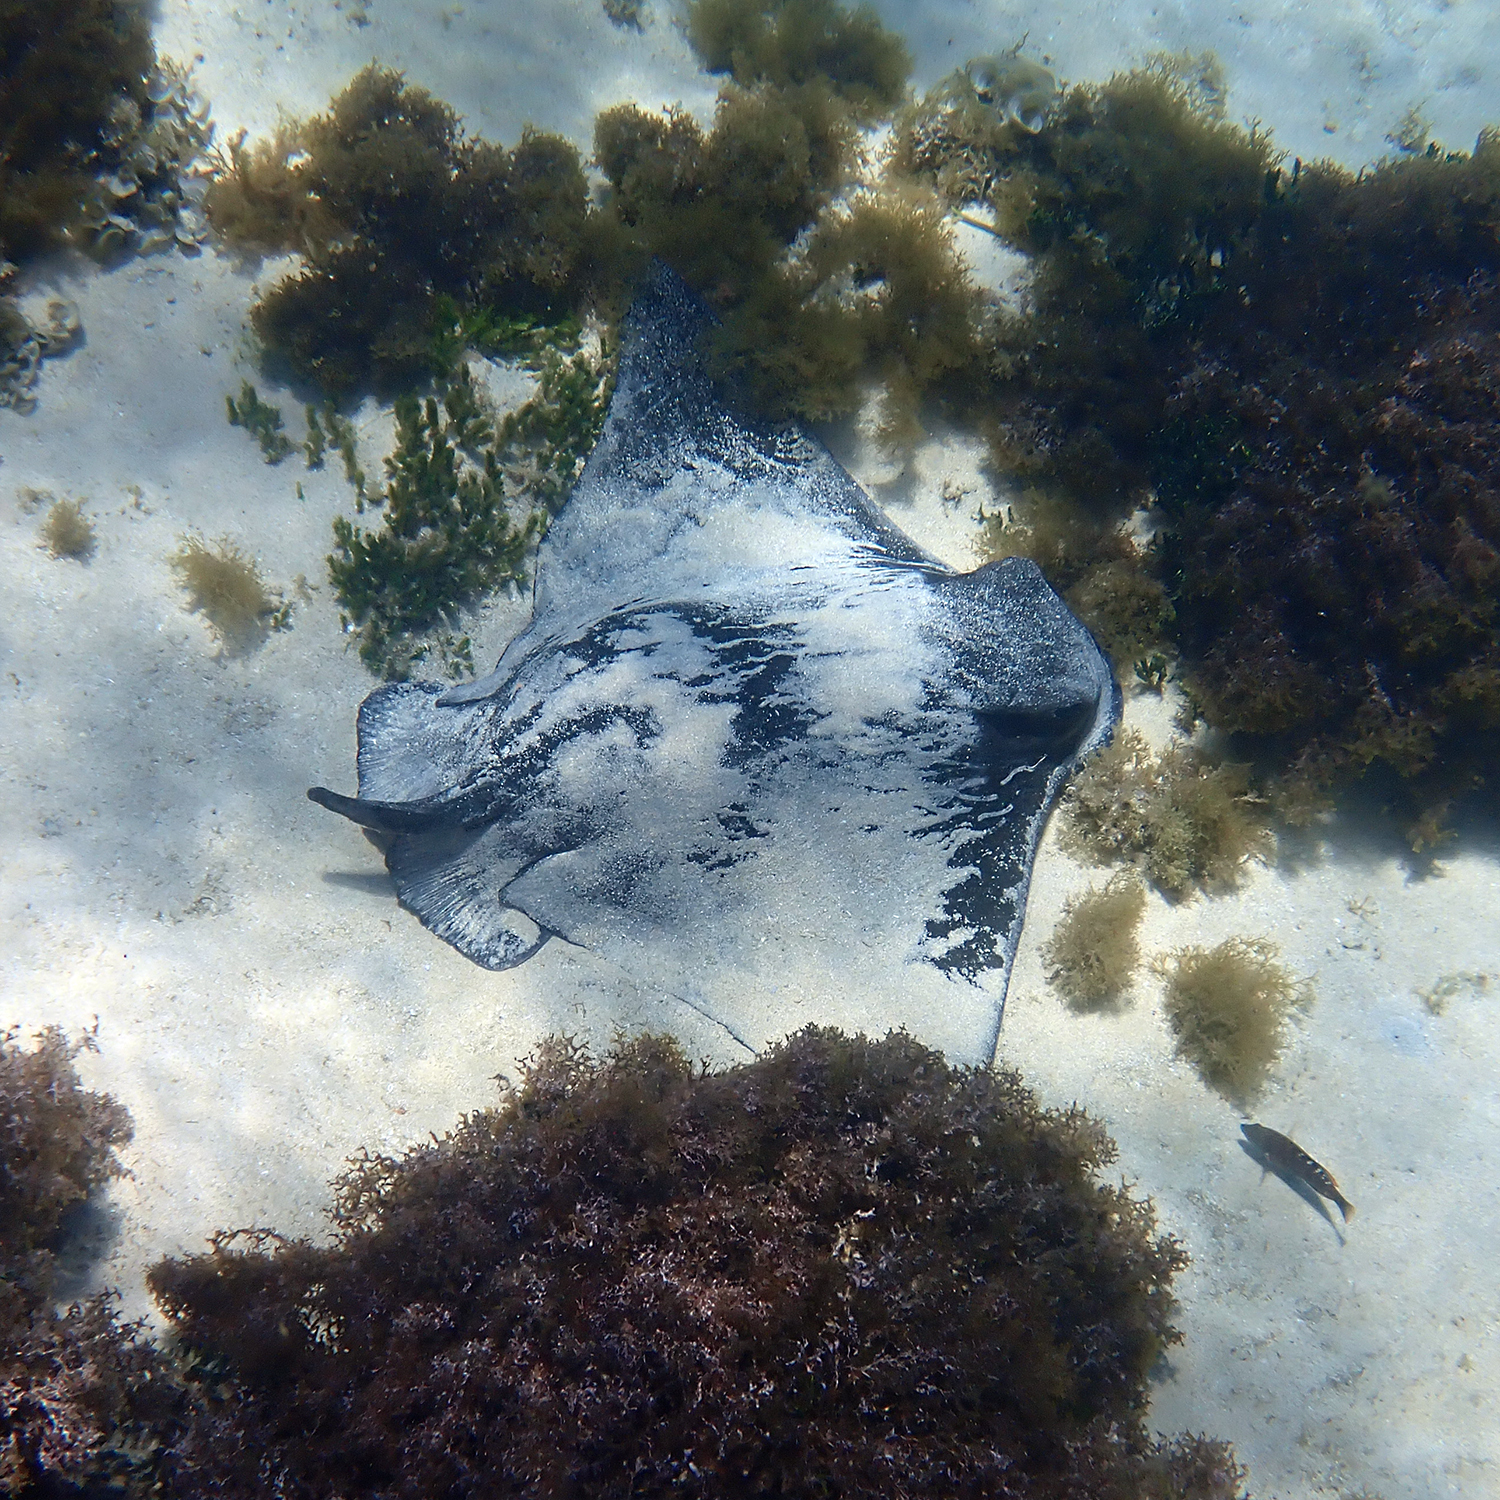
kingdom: Animalia
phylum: Chordata
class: Elasmobranchii
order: Myliobatiformes
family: Myliobatidae
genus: Myliobatis
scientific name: Myliobatis tenuicaudatus
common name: Eagle ray
